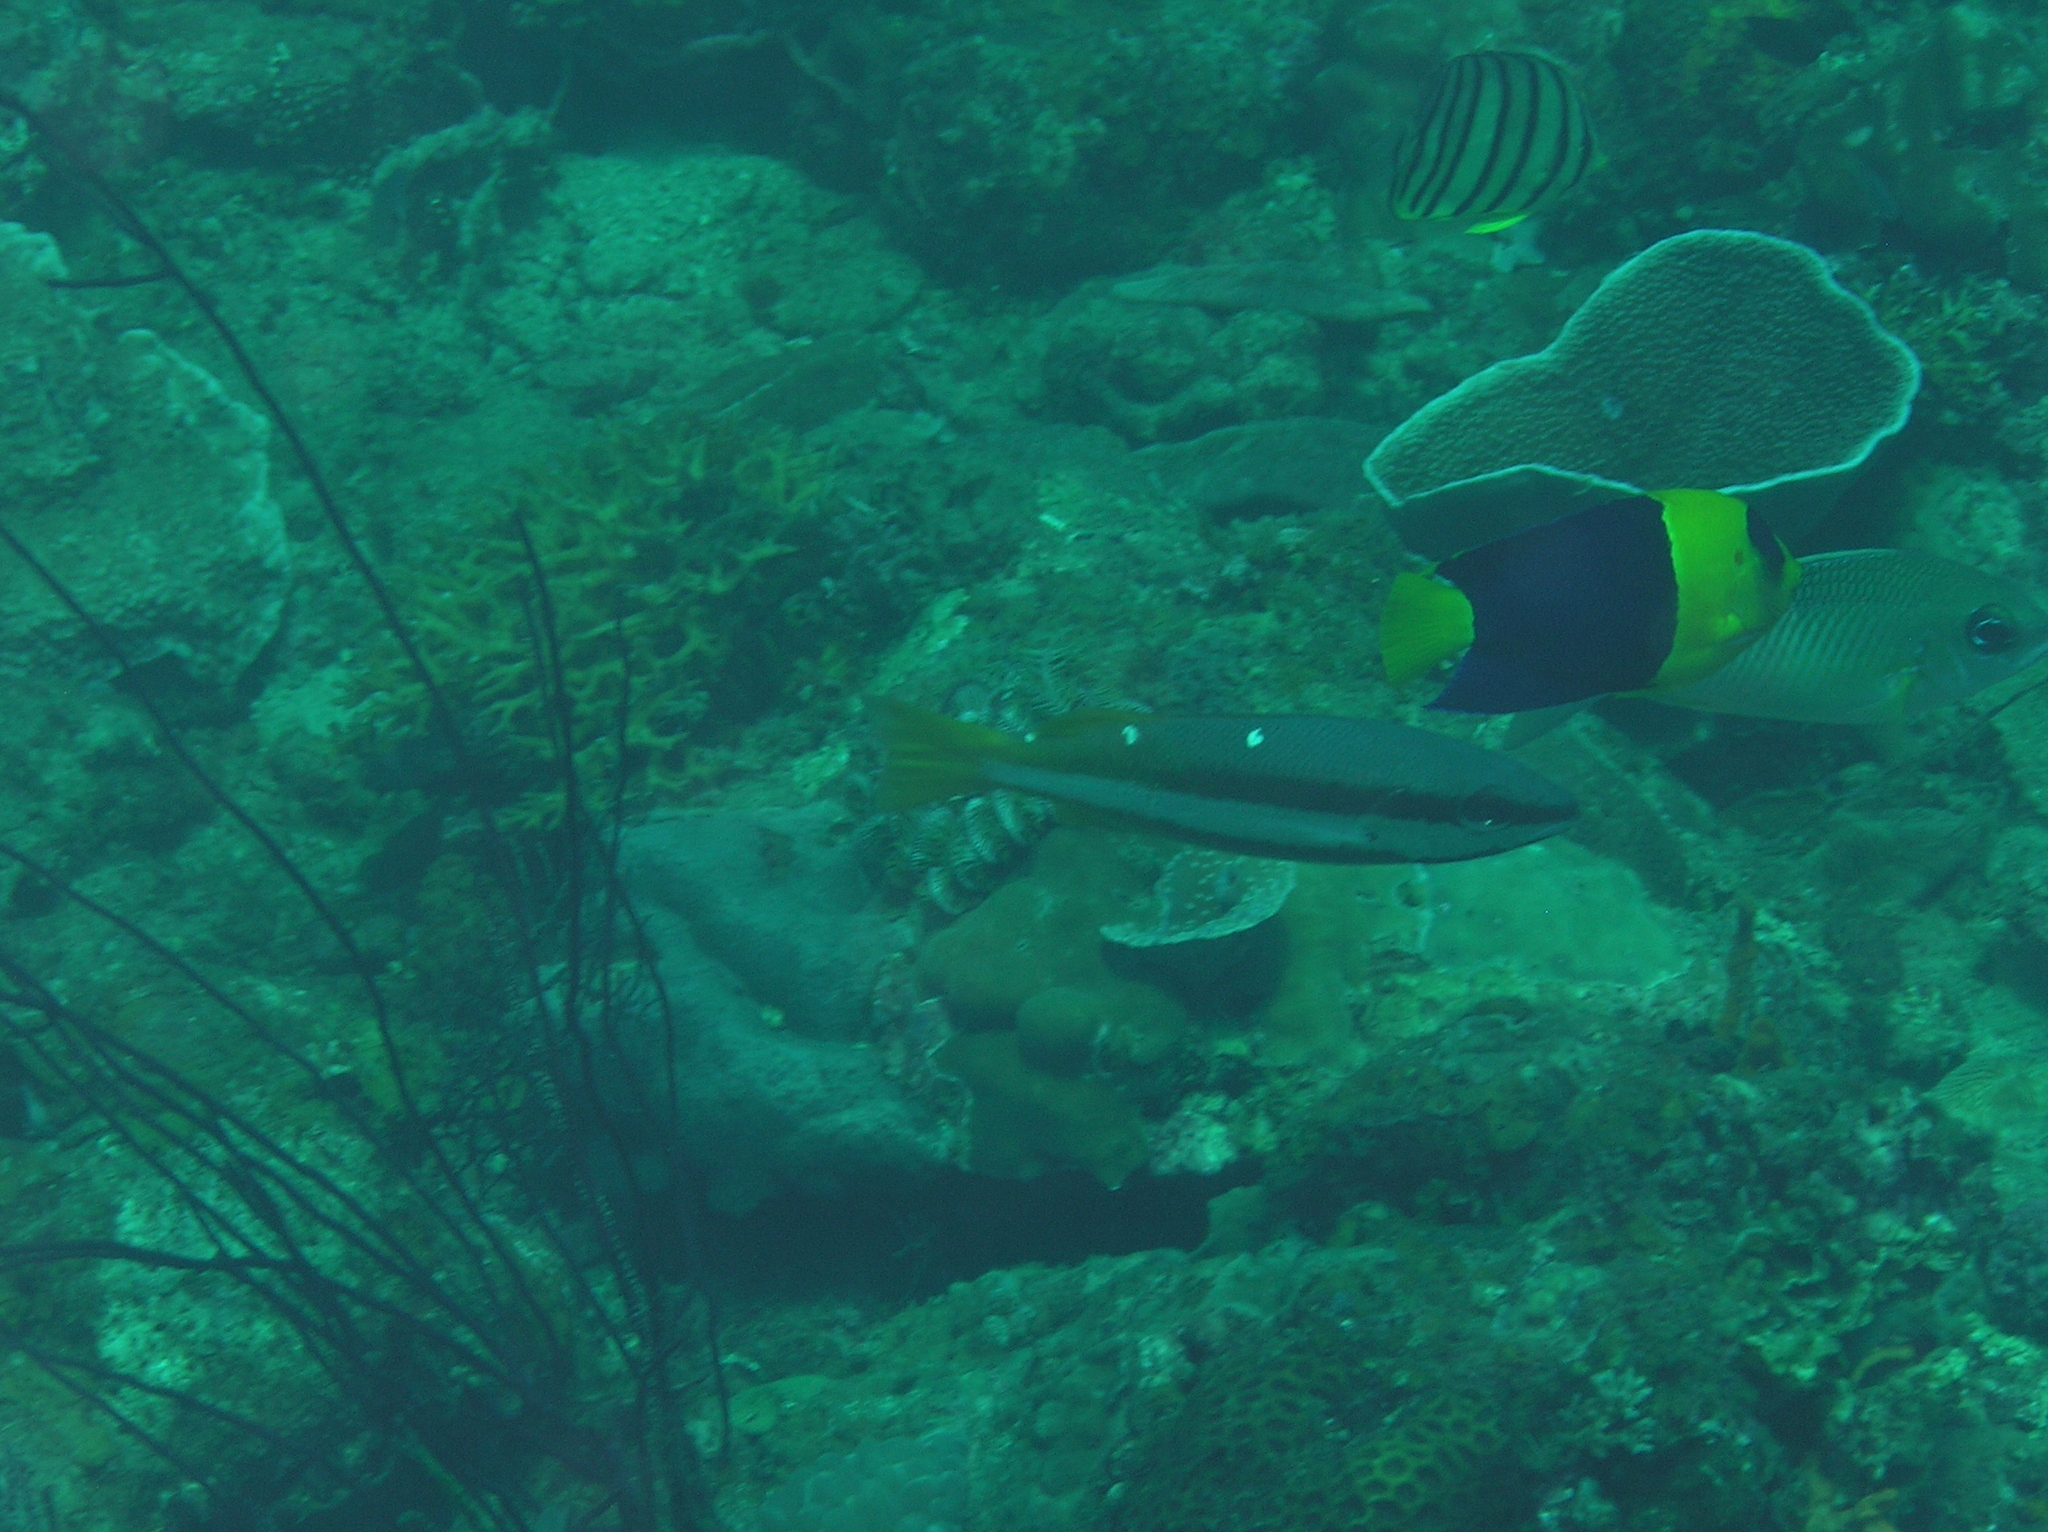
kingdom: Animalia
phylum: Chordata
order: Perciformes
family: Pomacanthidae
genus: Centropyge
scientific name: Centropyge bicolor
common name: Bicolor angelfish
